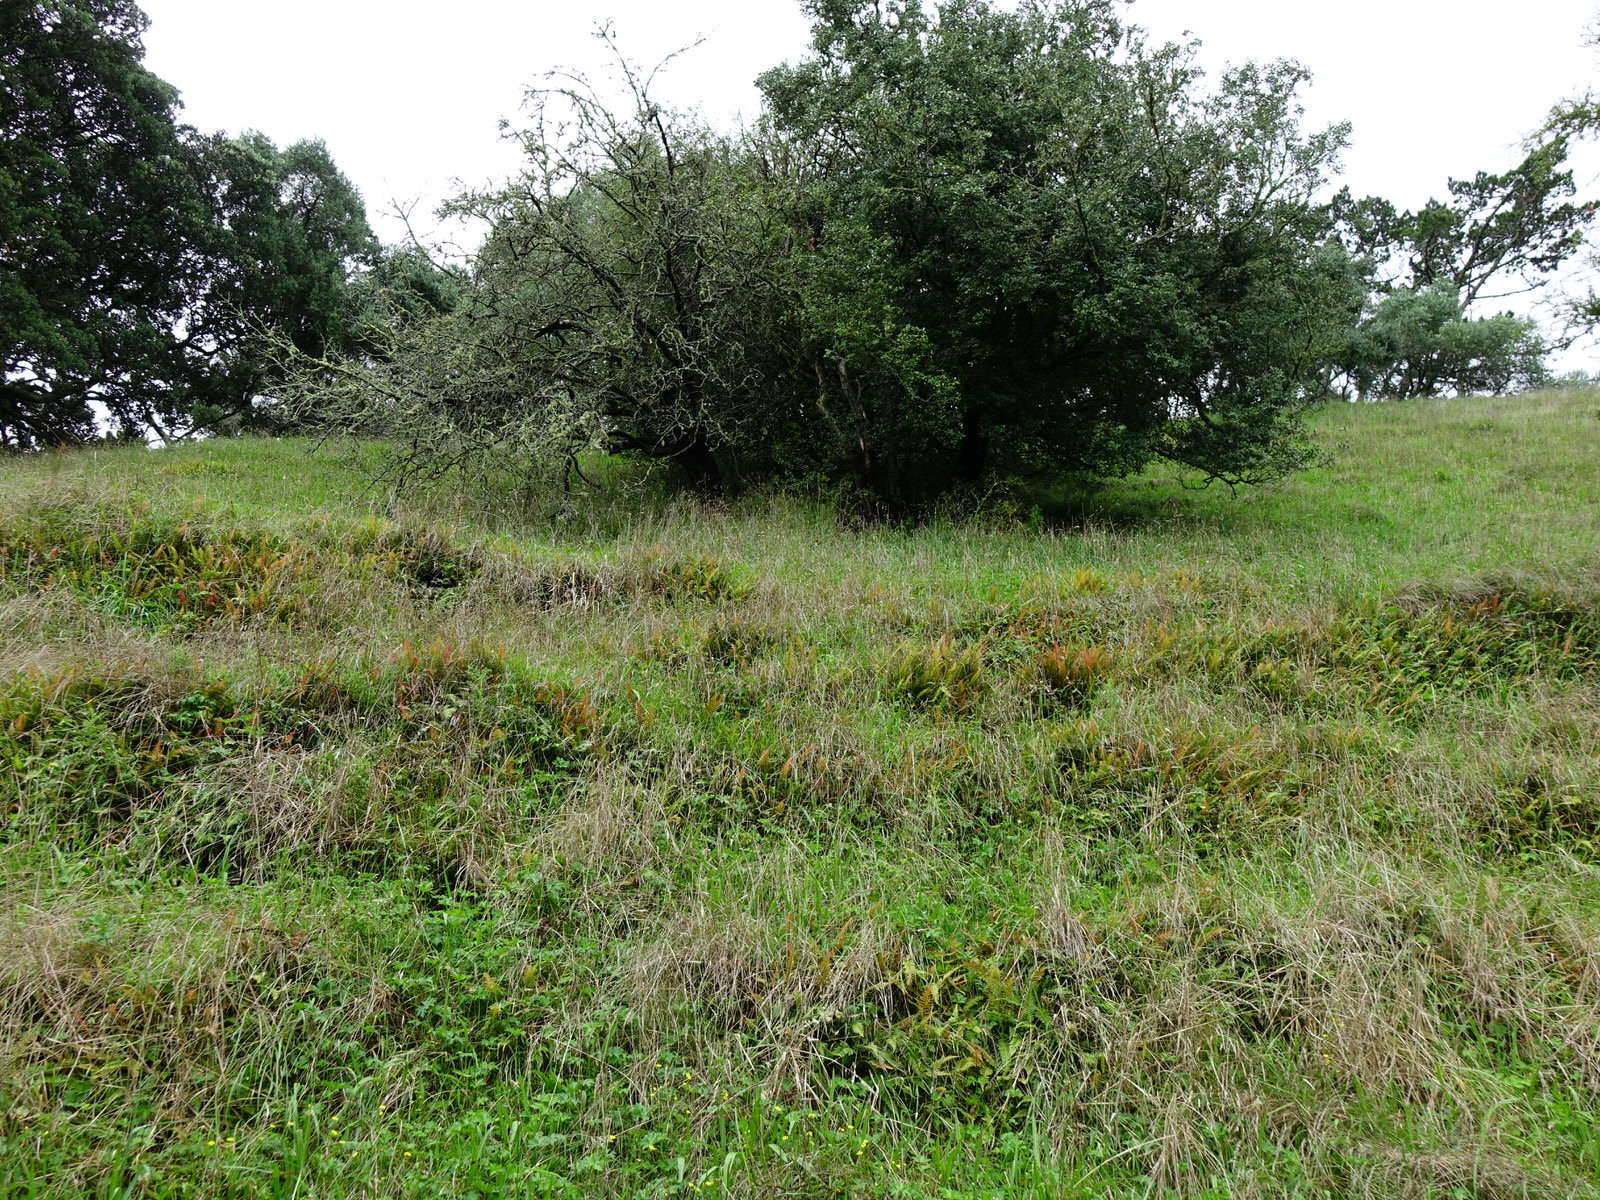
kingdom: Plantae
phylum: Tracheophyta
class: Polypodiopsida
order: Polypodiales
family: Blechnaceae
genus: Doodia
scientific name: Doodia australis
